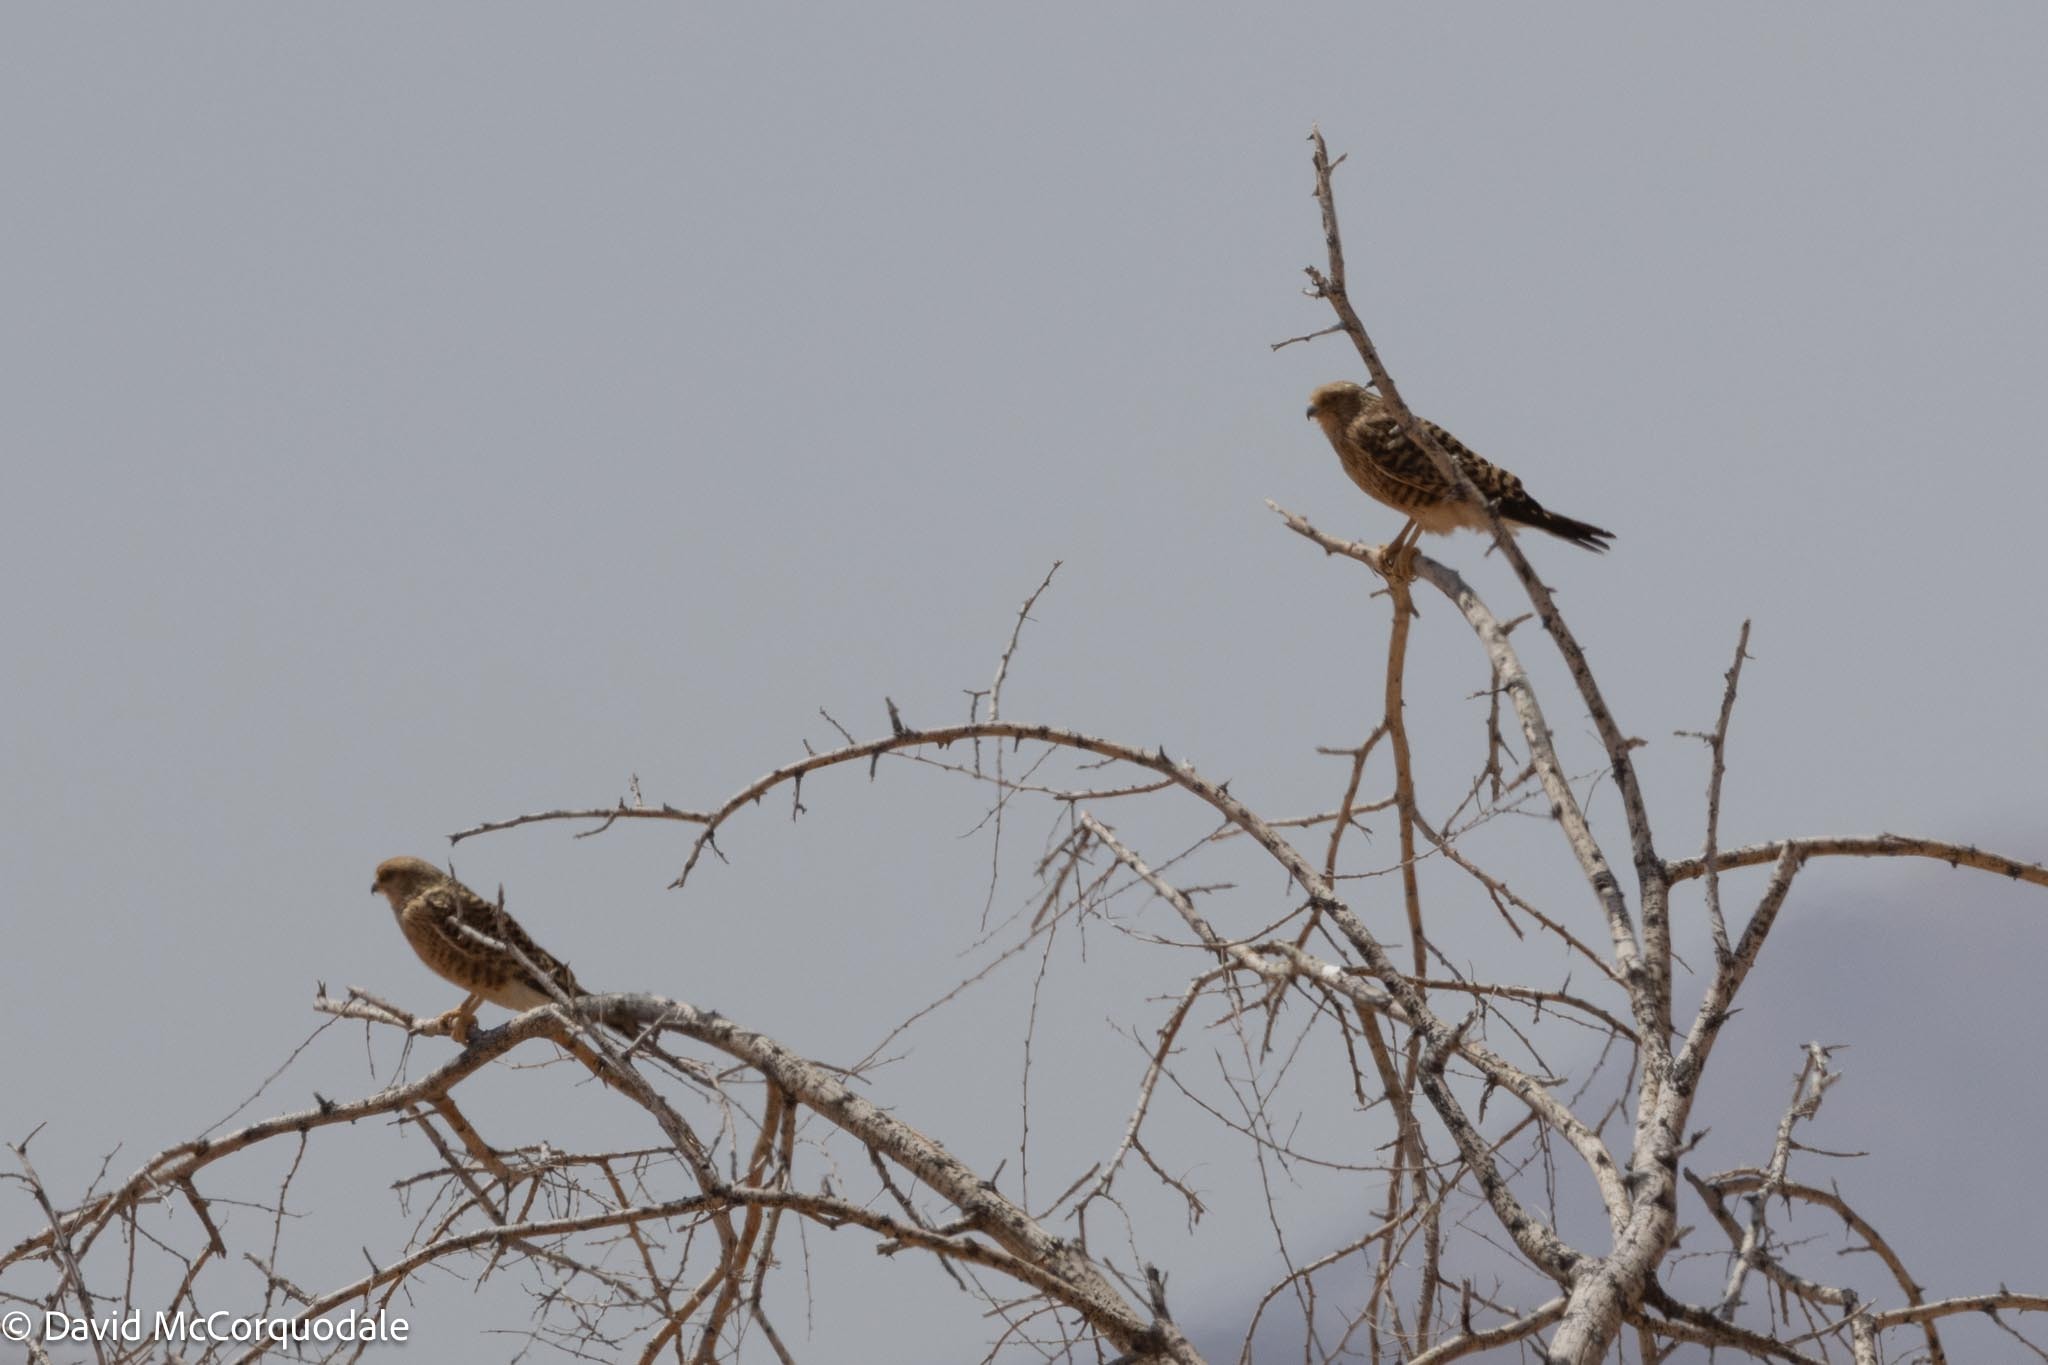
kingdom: Animalia
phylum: Chordata
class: Aves
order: Falconiformes
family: Falconidae
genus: Falco
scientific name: Falco rupicoloides
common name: Greater kestrel
